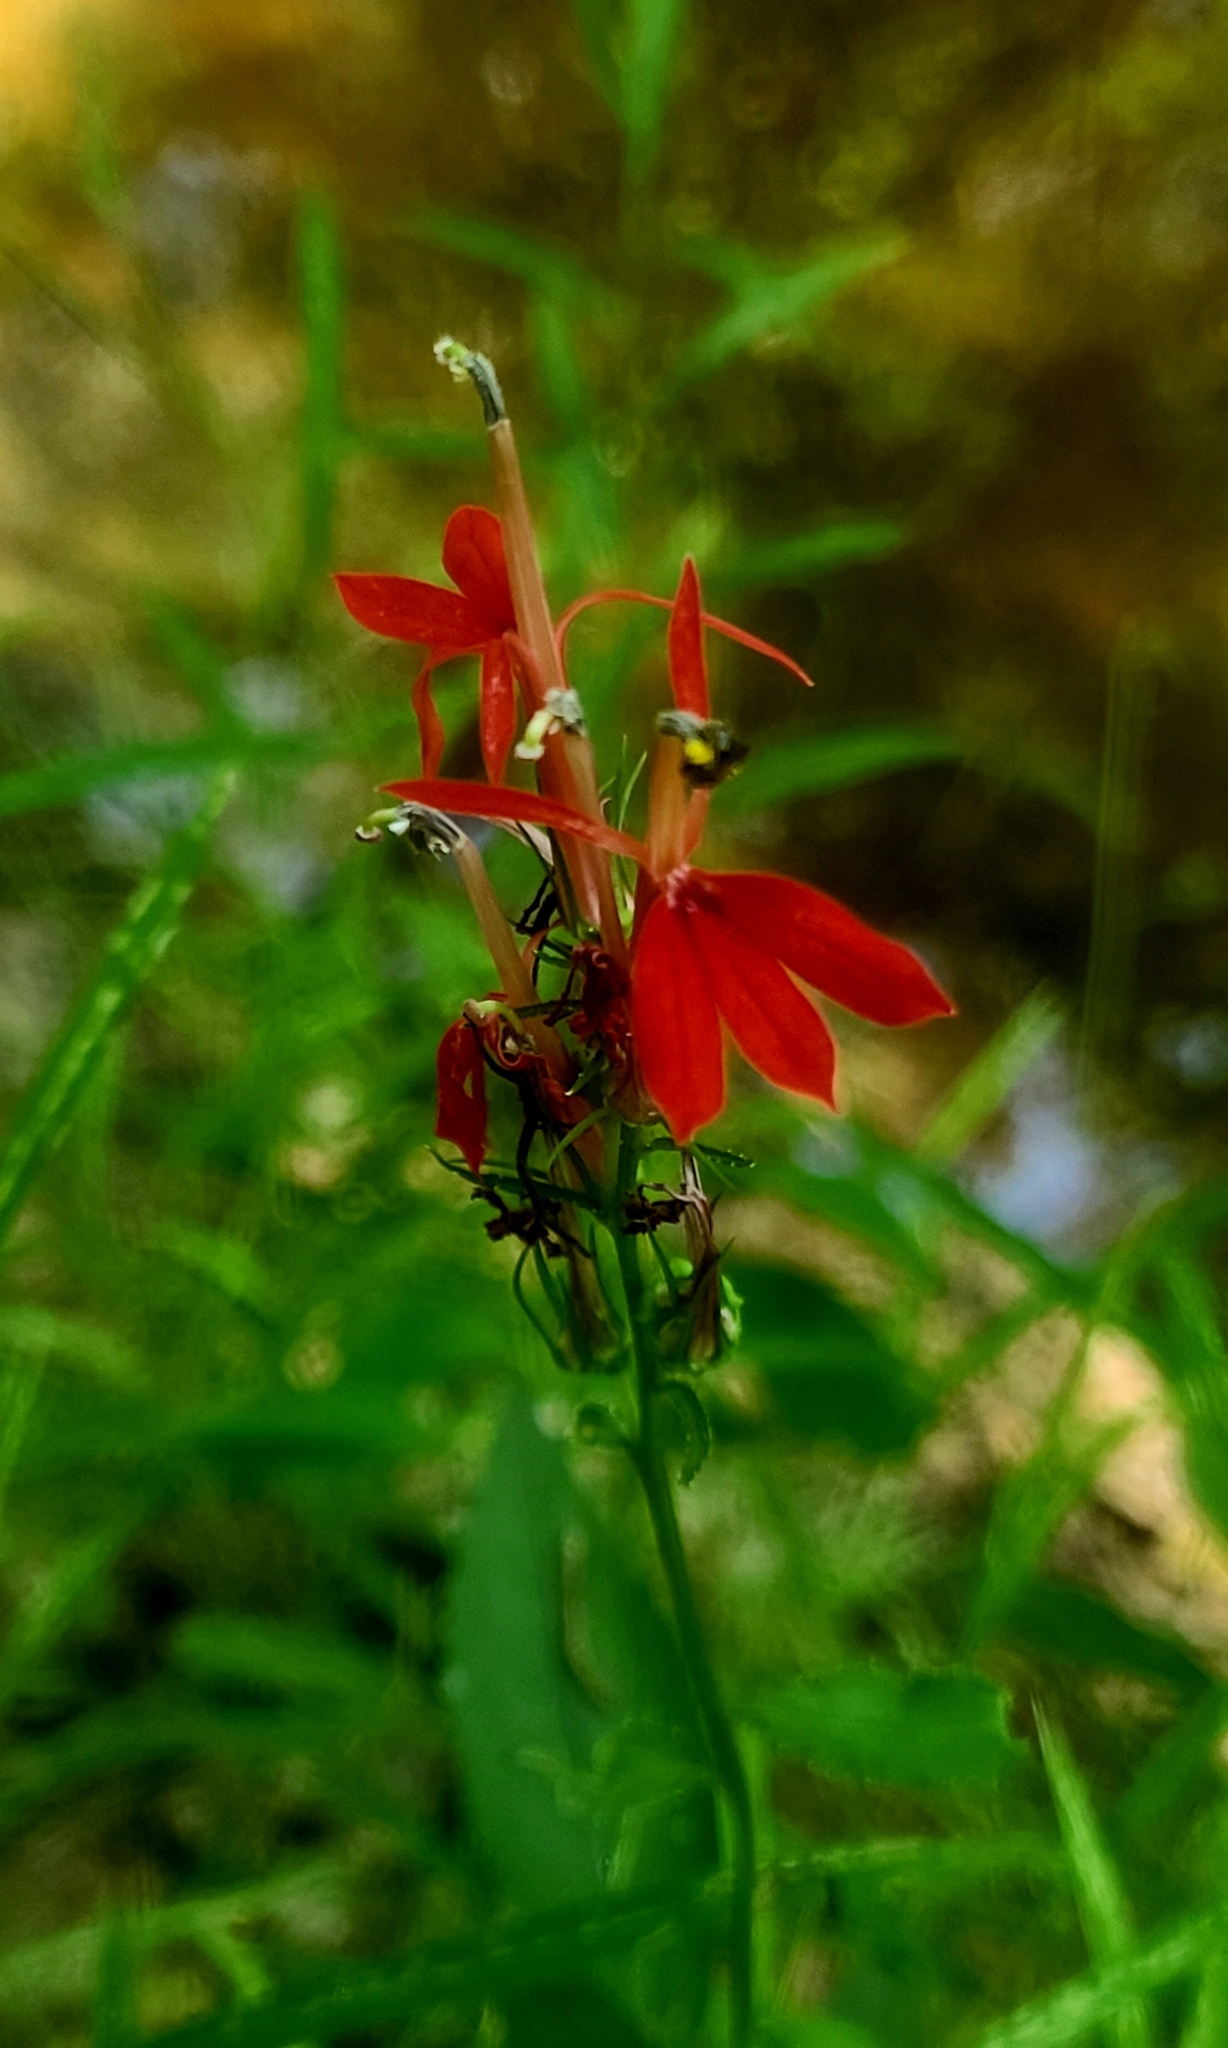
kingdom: Plantae
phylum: Tracheophyta
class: Magnoliopsida
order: Asterales
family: Campanulaceae
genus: Lobelia
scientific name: Lobelia cardinalis
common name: Cardinal flower
